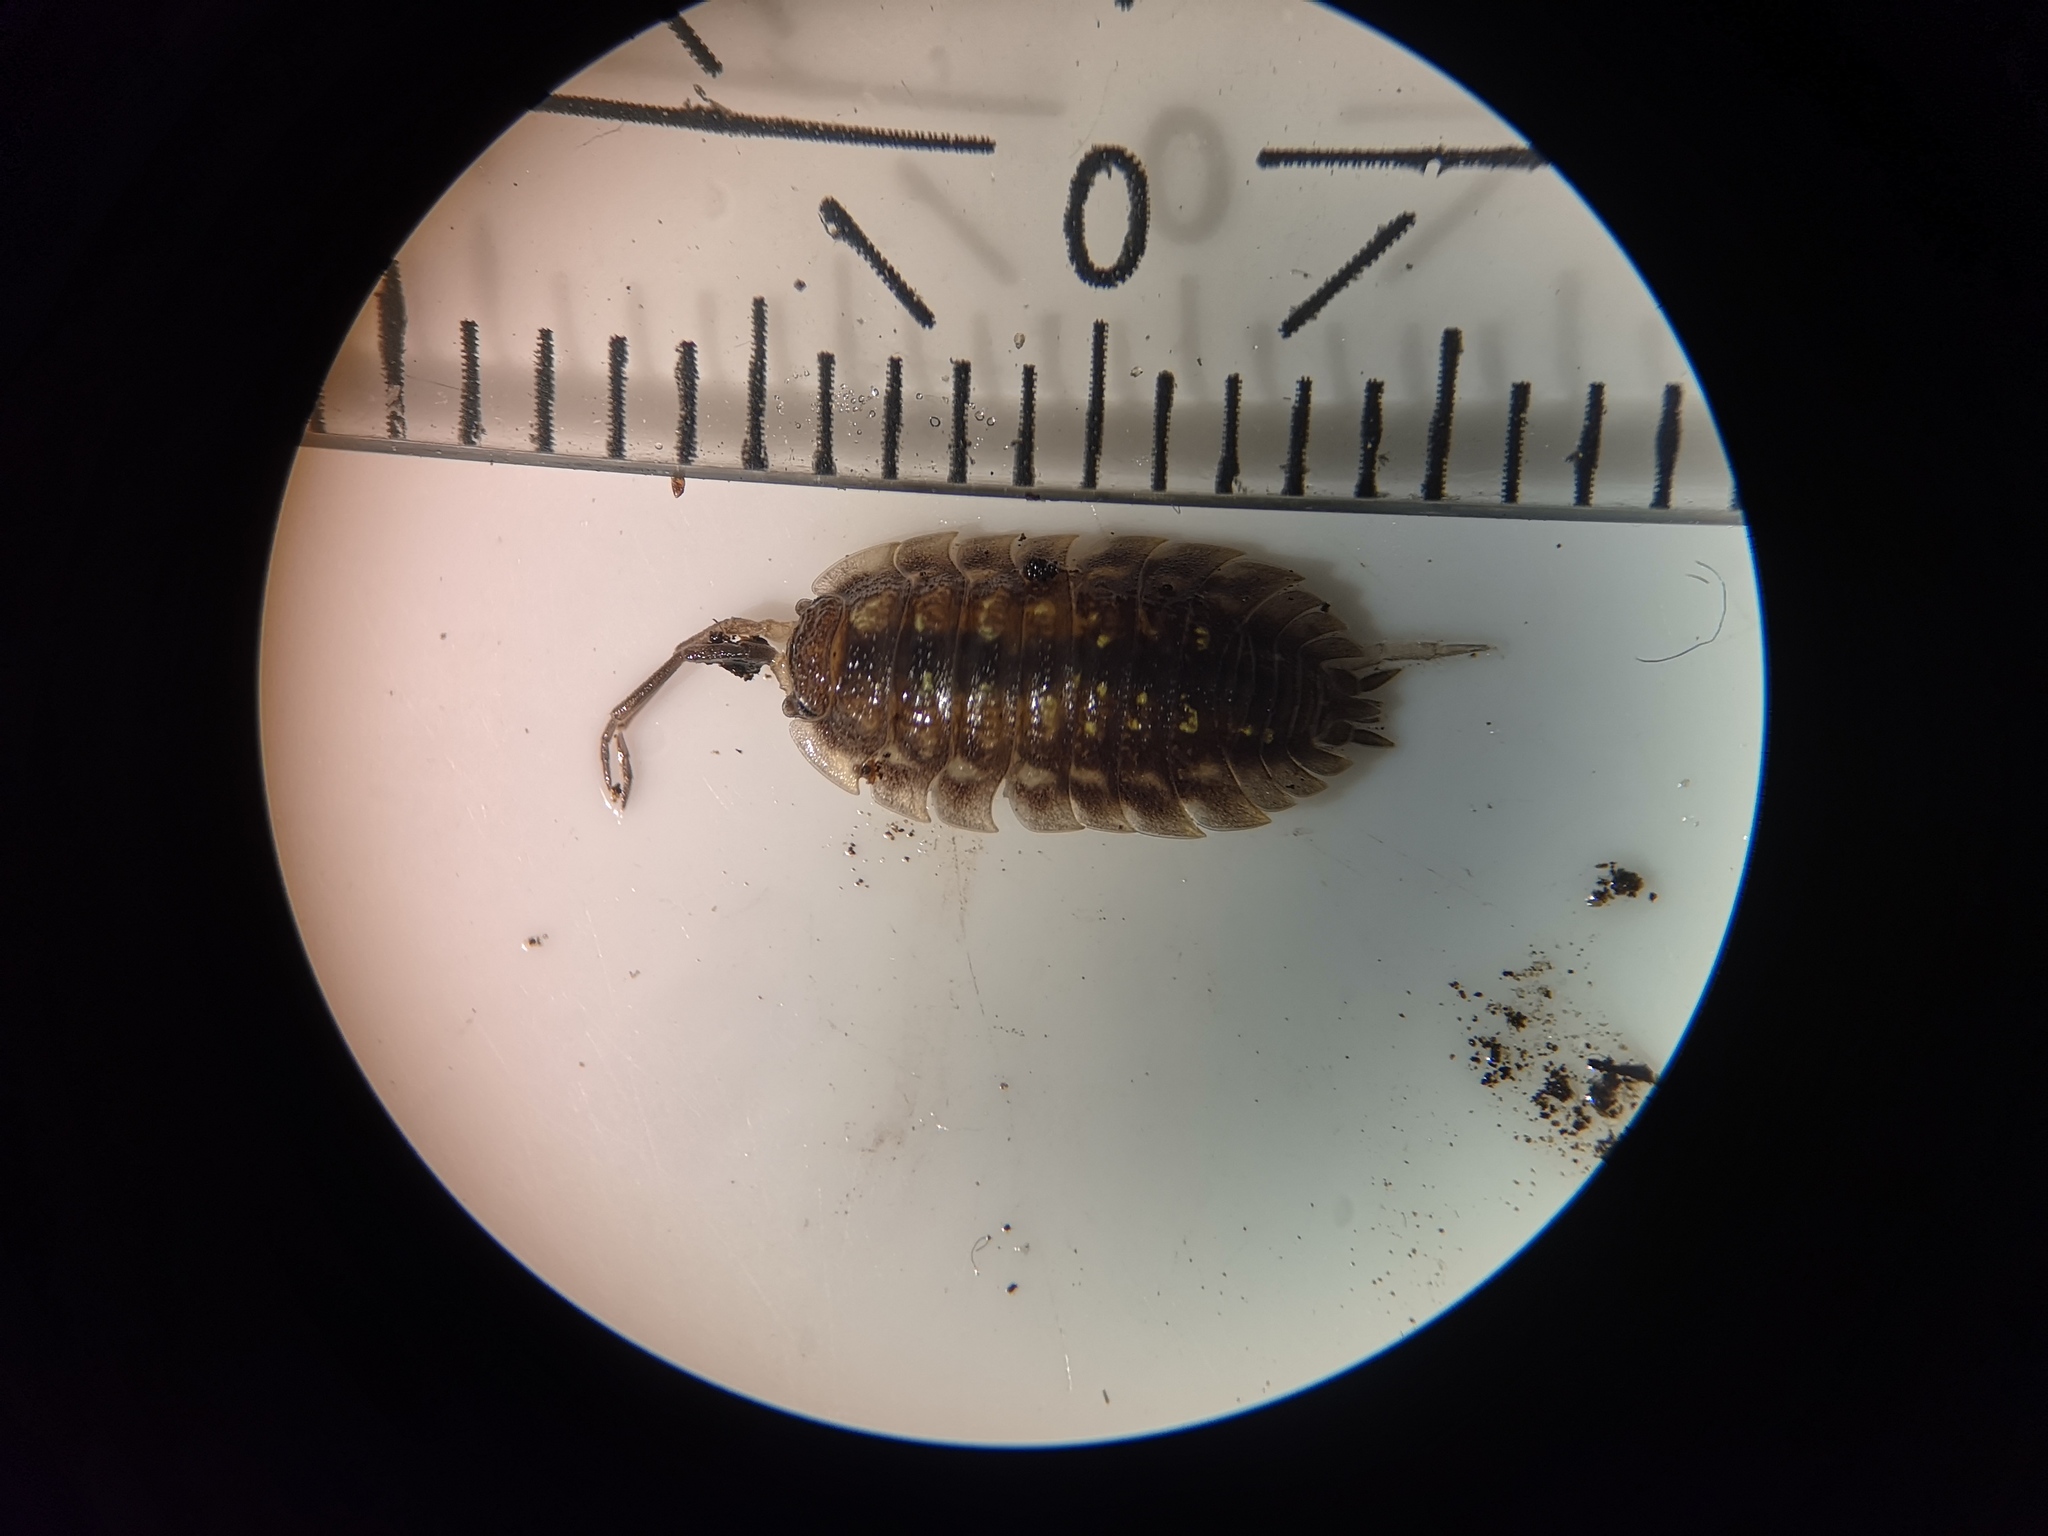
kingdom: Animalia
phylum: Arthropoda
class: Malacostraca
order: Isopoda
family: Oniscidae
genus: Oniscus
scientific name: Oniscus asellus
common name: Common shiny woodlouse
